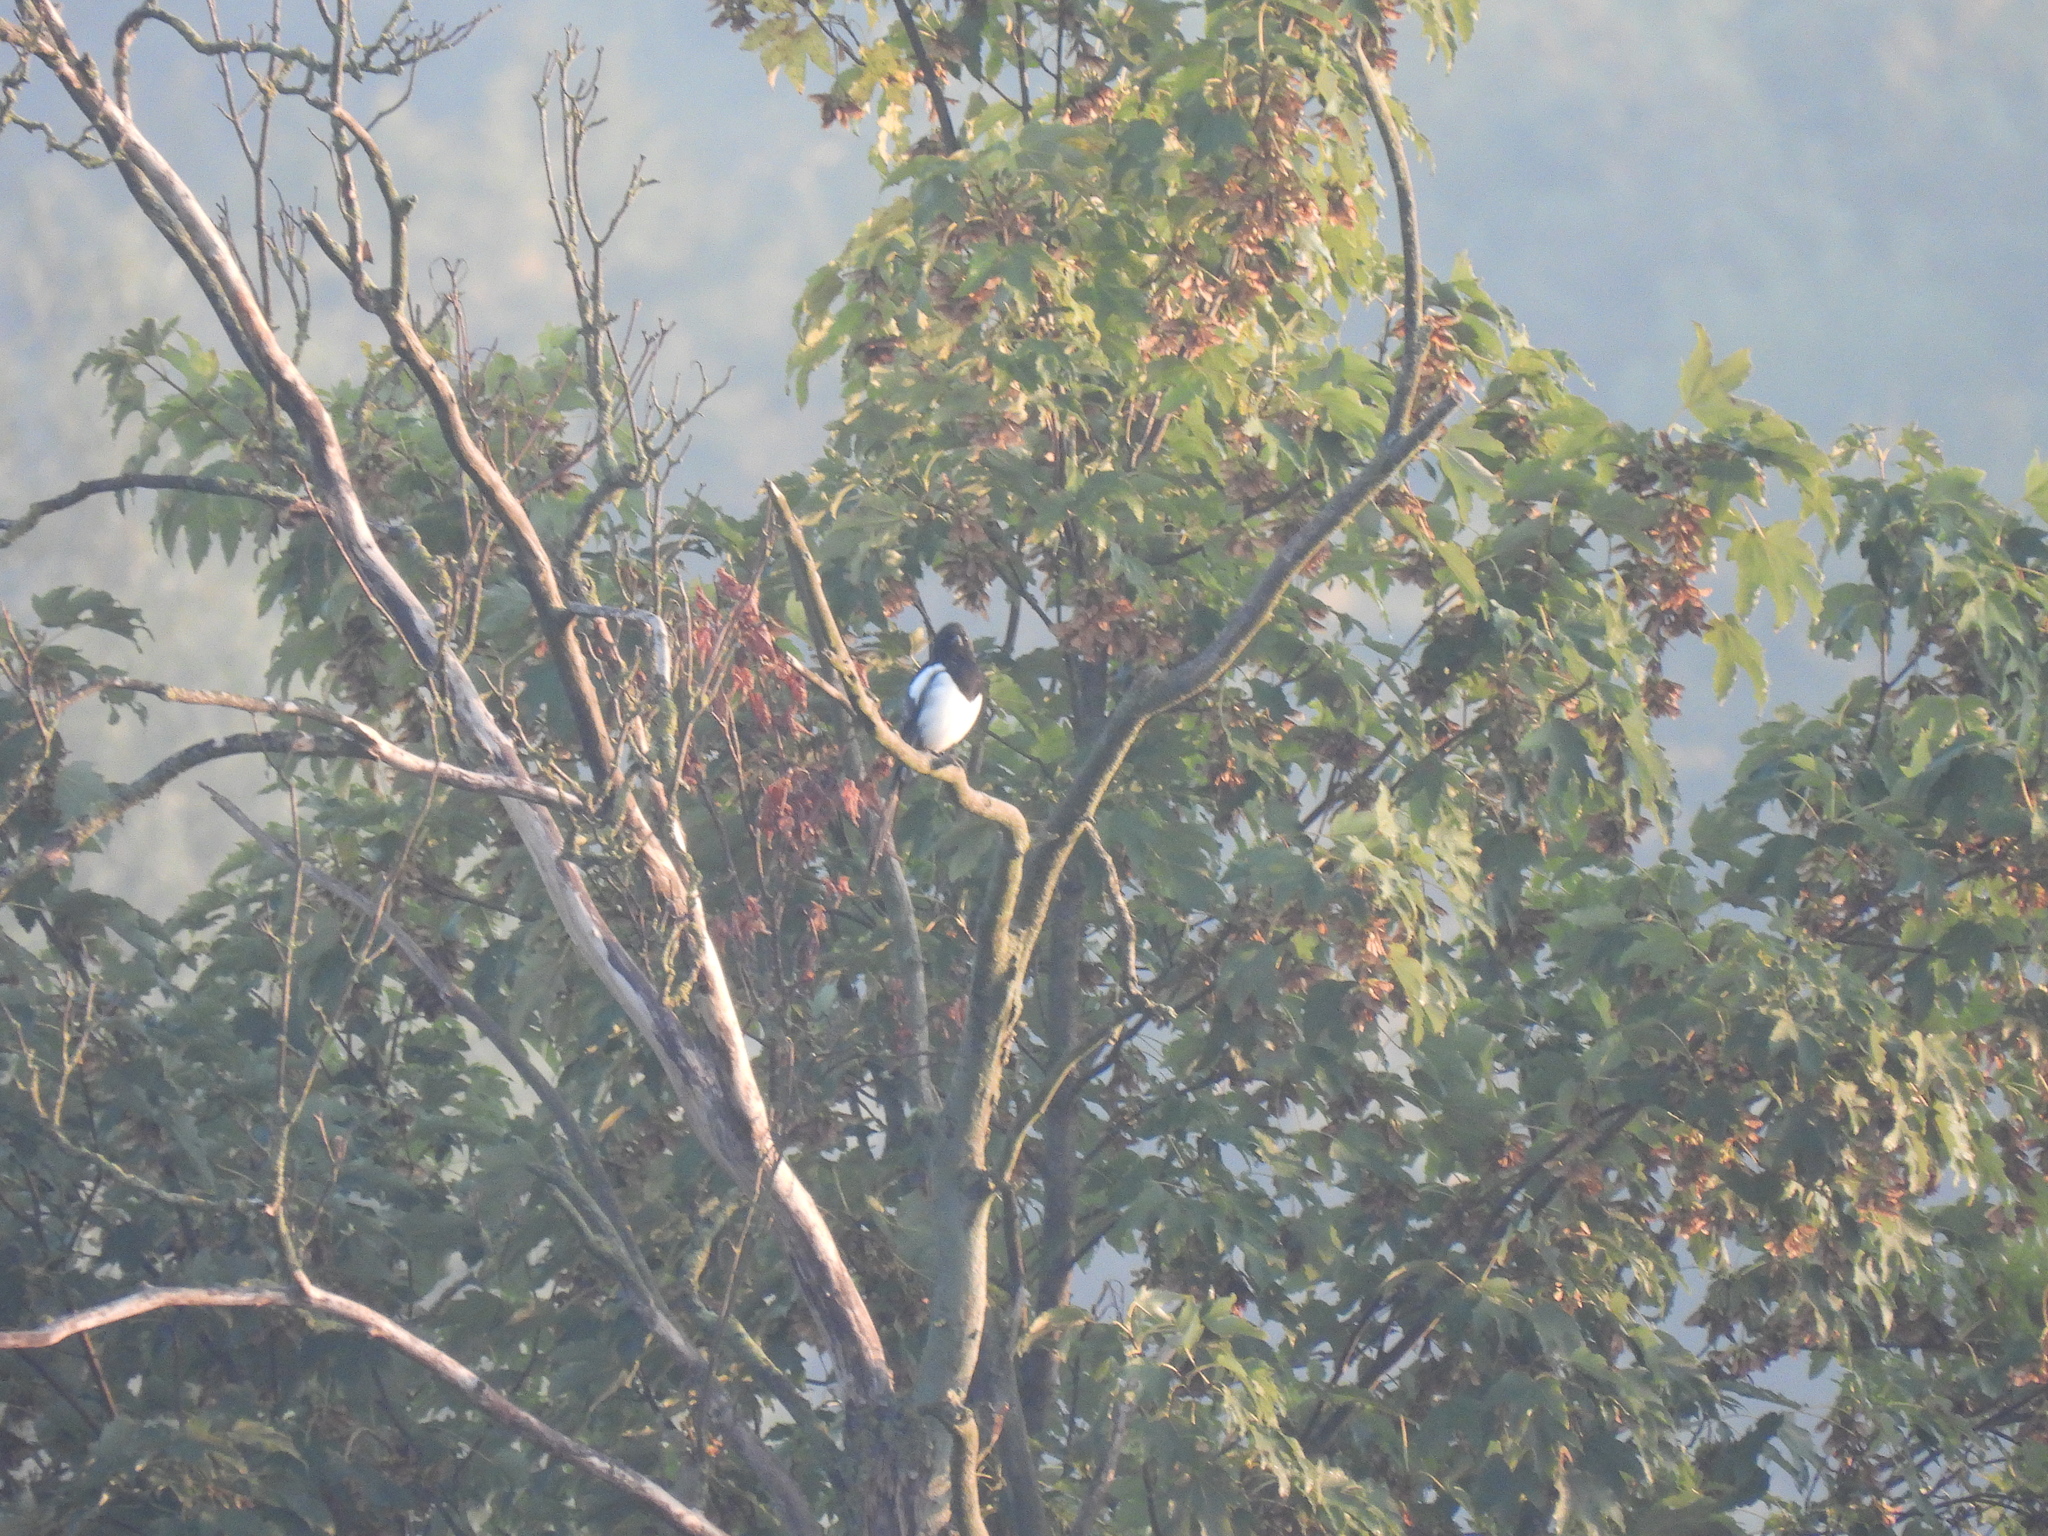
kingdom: Animalia
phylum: Chordata
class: Aves
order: Passeriformes
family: Corvidae
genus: Pica
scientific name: Pica pica
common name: Eurasian magpie
